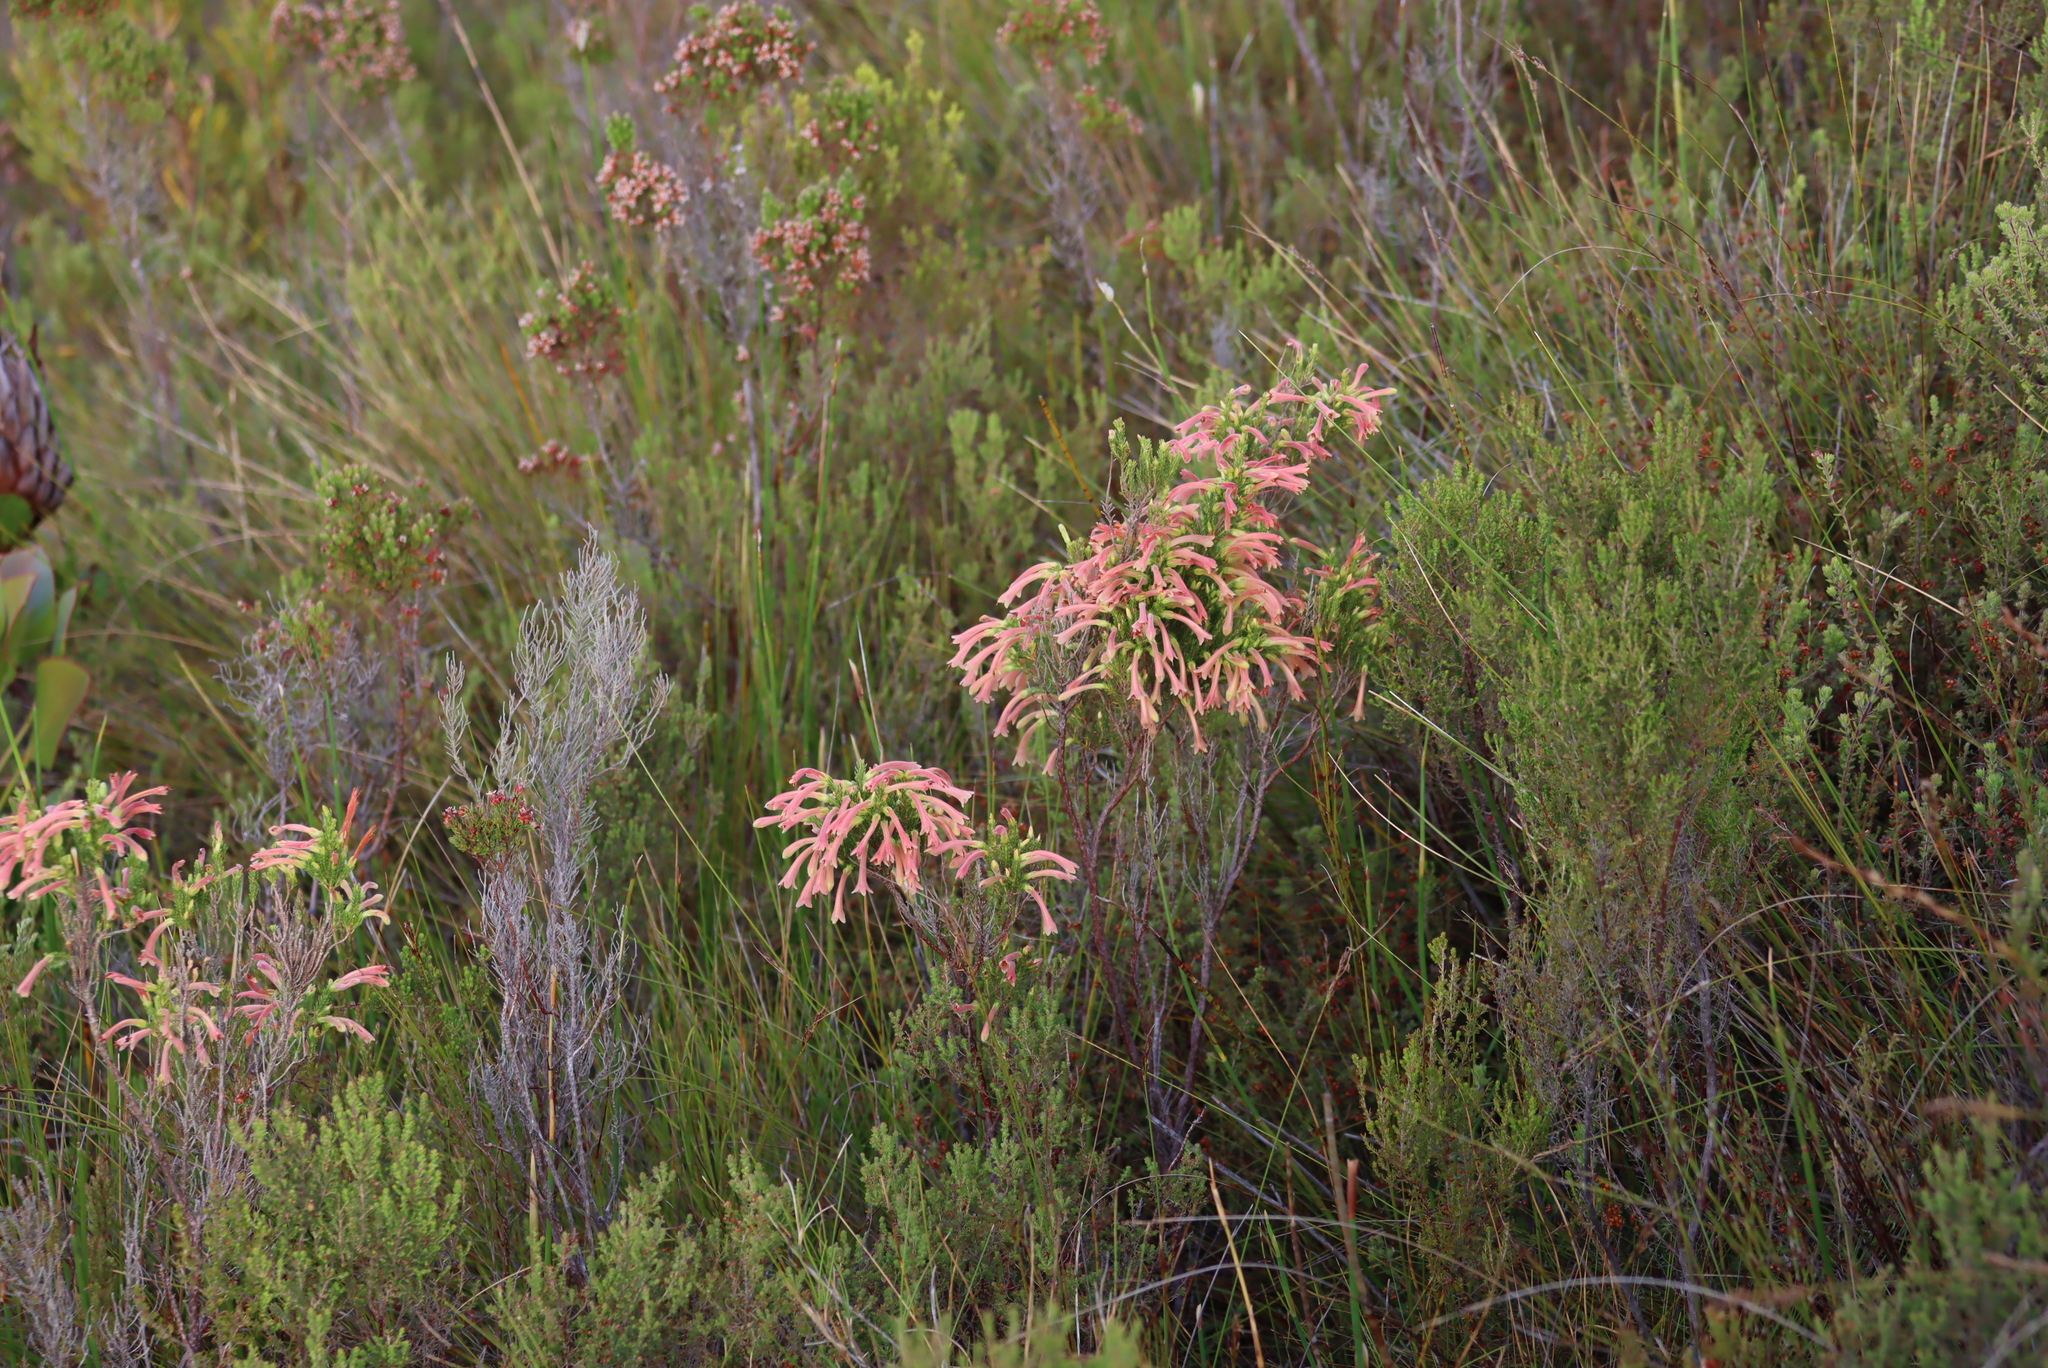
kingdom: Plantae
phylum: Tracheophyta
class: Magnoliopsida
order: Ericales
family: Ericaceae
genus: Erica
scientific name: Erica curviflora
